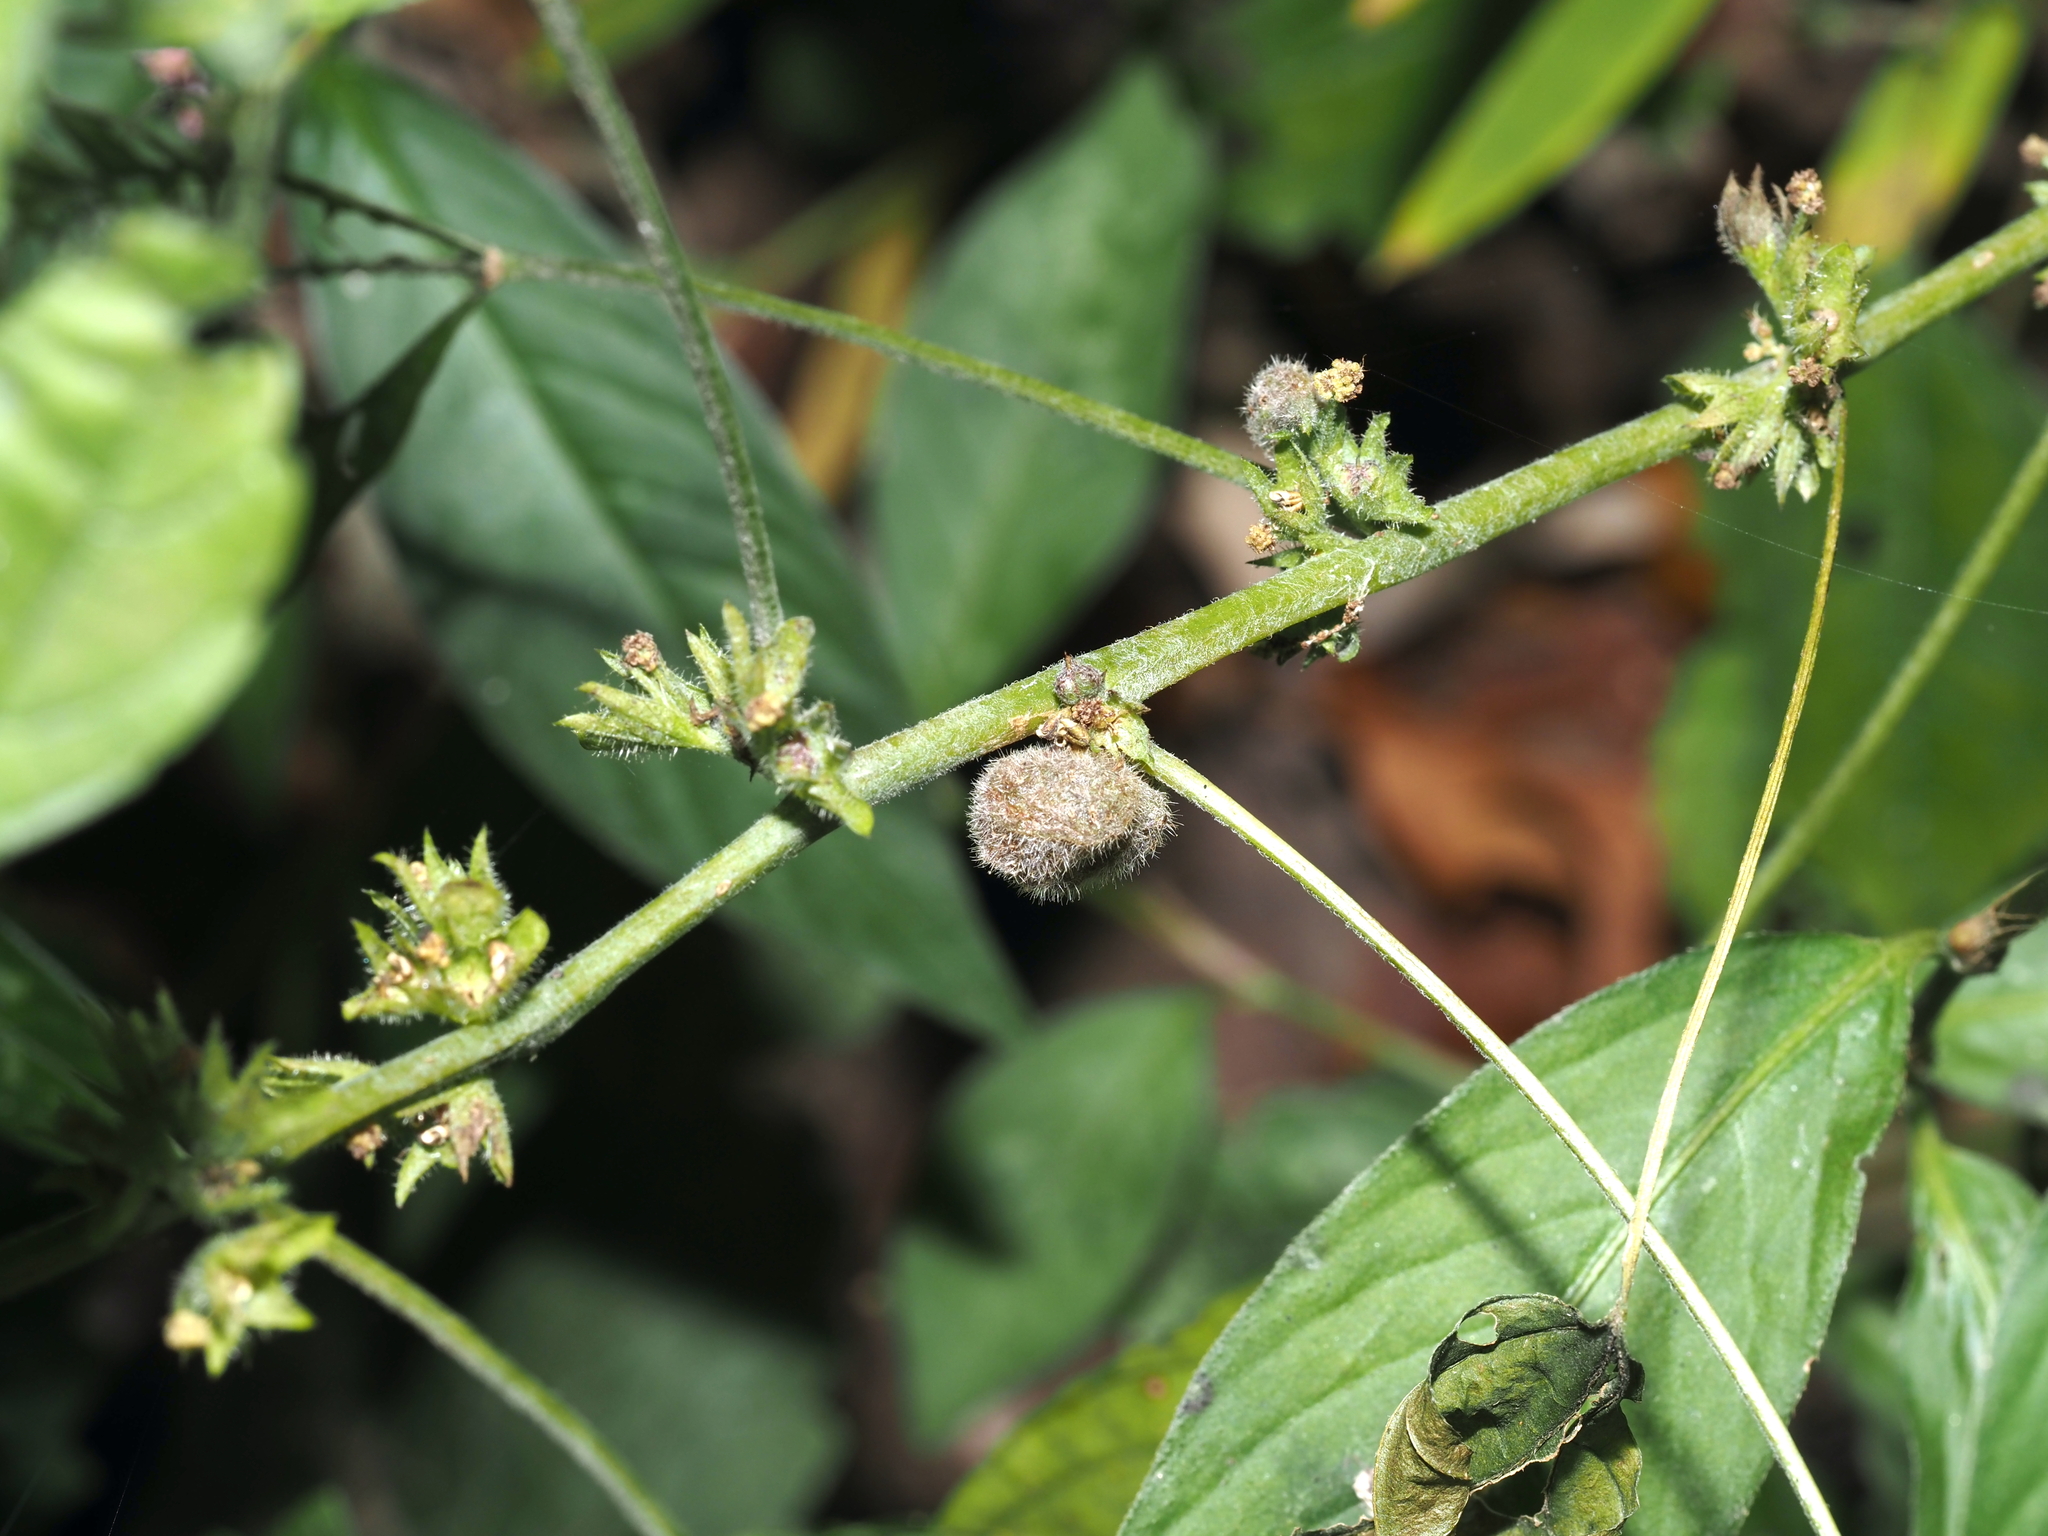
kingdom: Animalia
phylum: Arthropoda
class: Insecta
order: Diptera
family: Cecidomyiidae
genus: Resseliella
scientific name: Resseliella globosa
